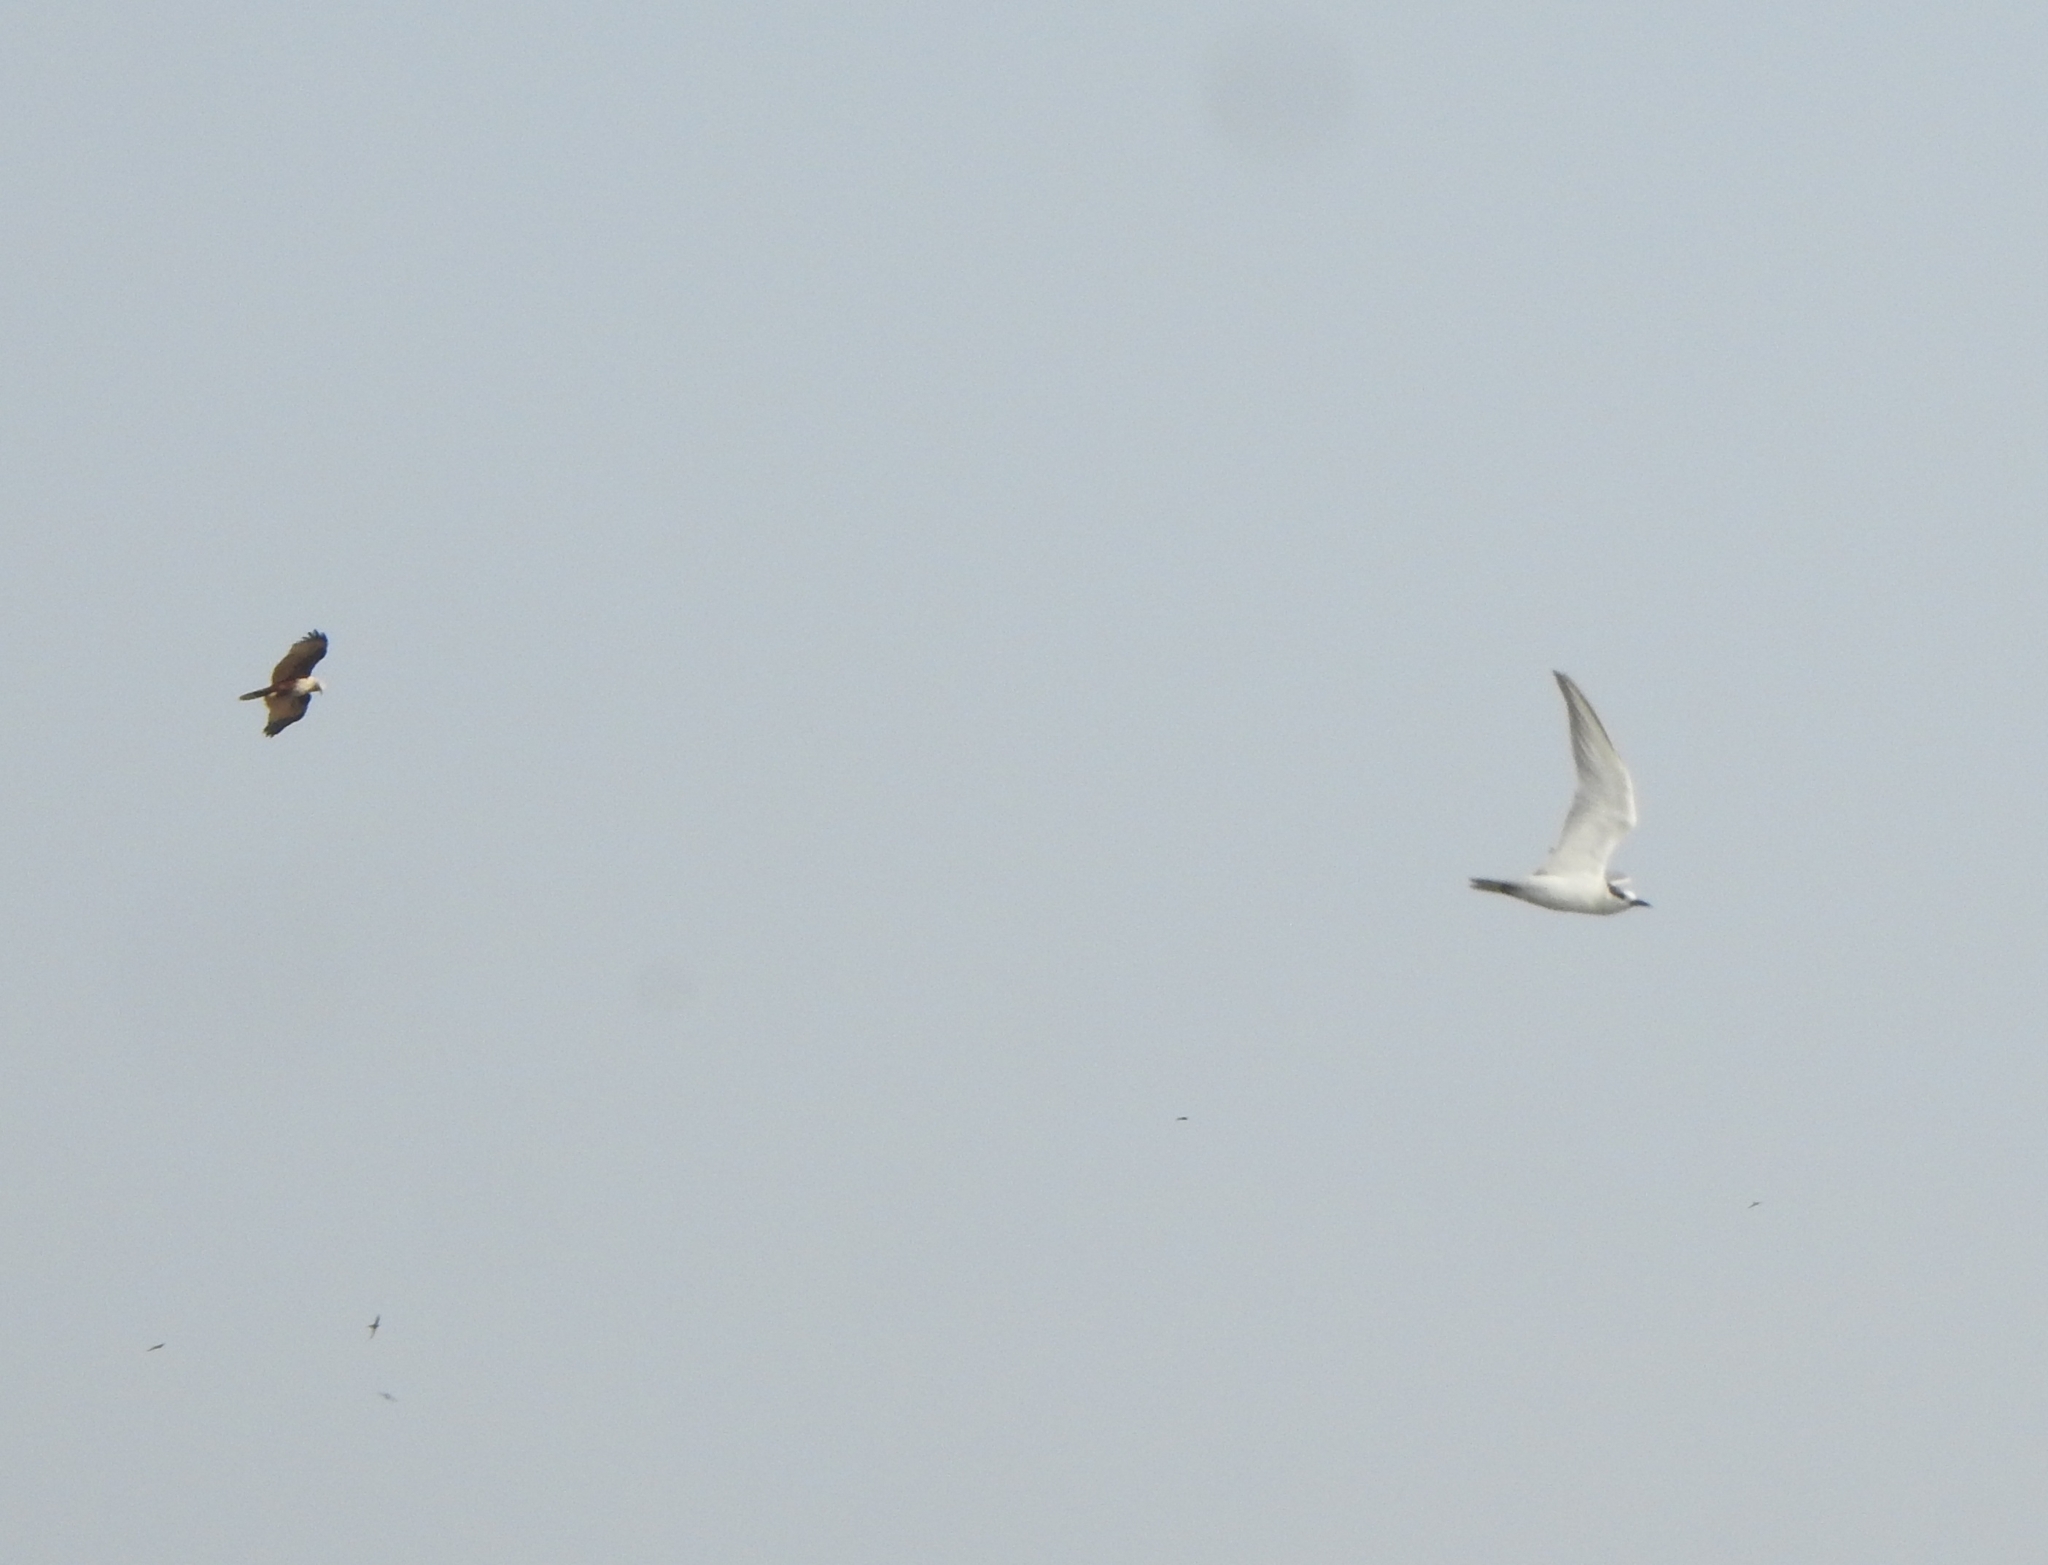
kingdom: Animalia
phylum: Chordata
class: Aves
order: Charadriiformes
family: Laridae
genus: Chlidonias
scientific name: Chlidonias hybrida
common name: Whiskered tern
